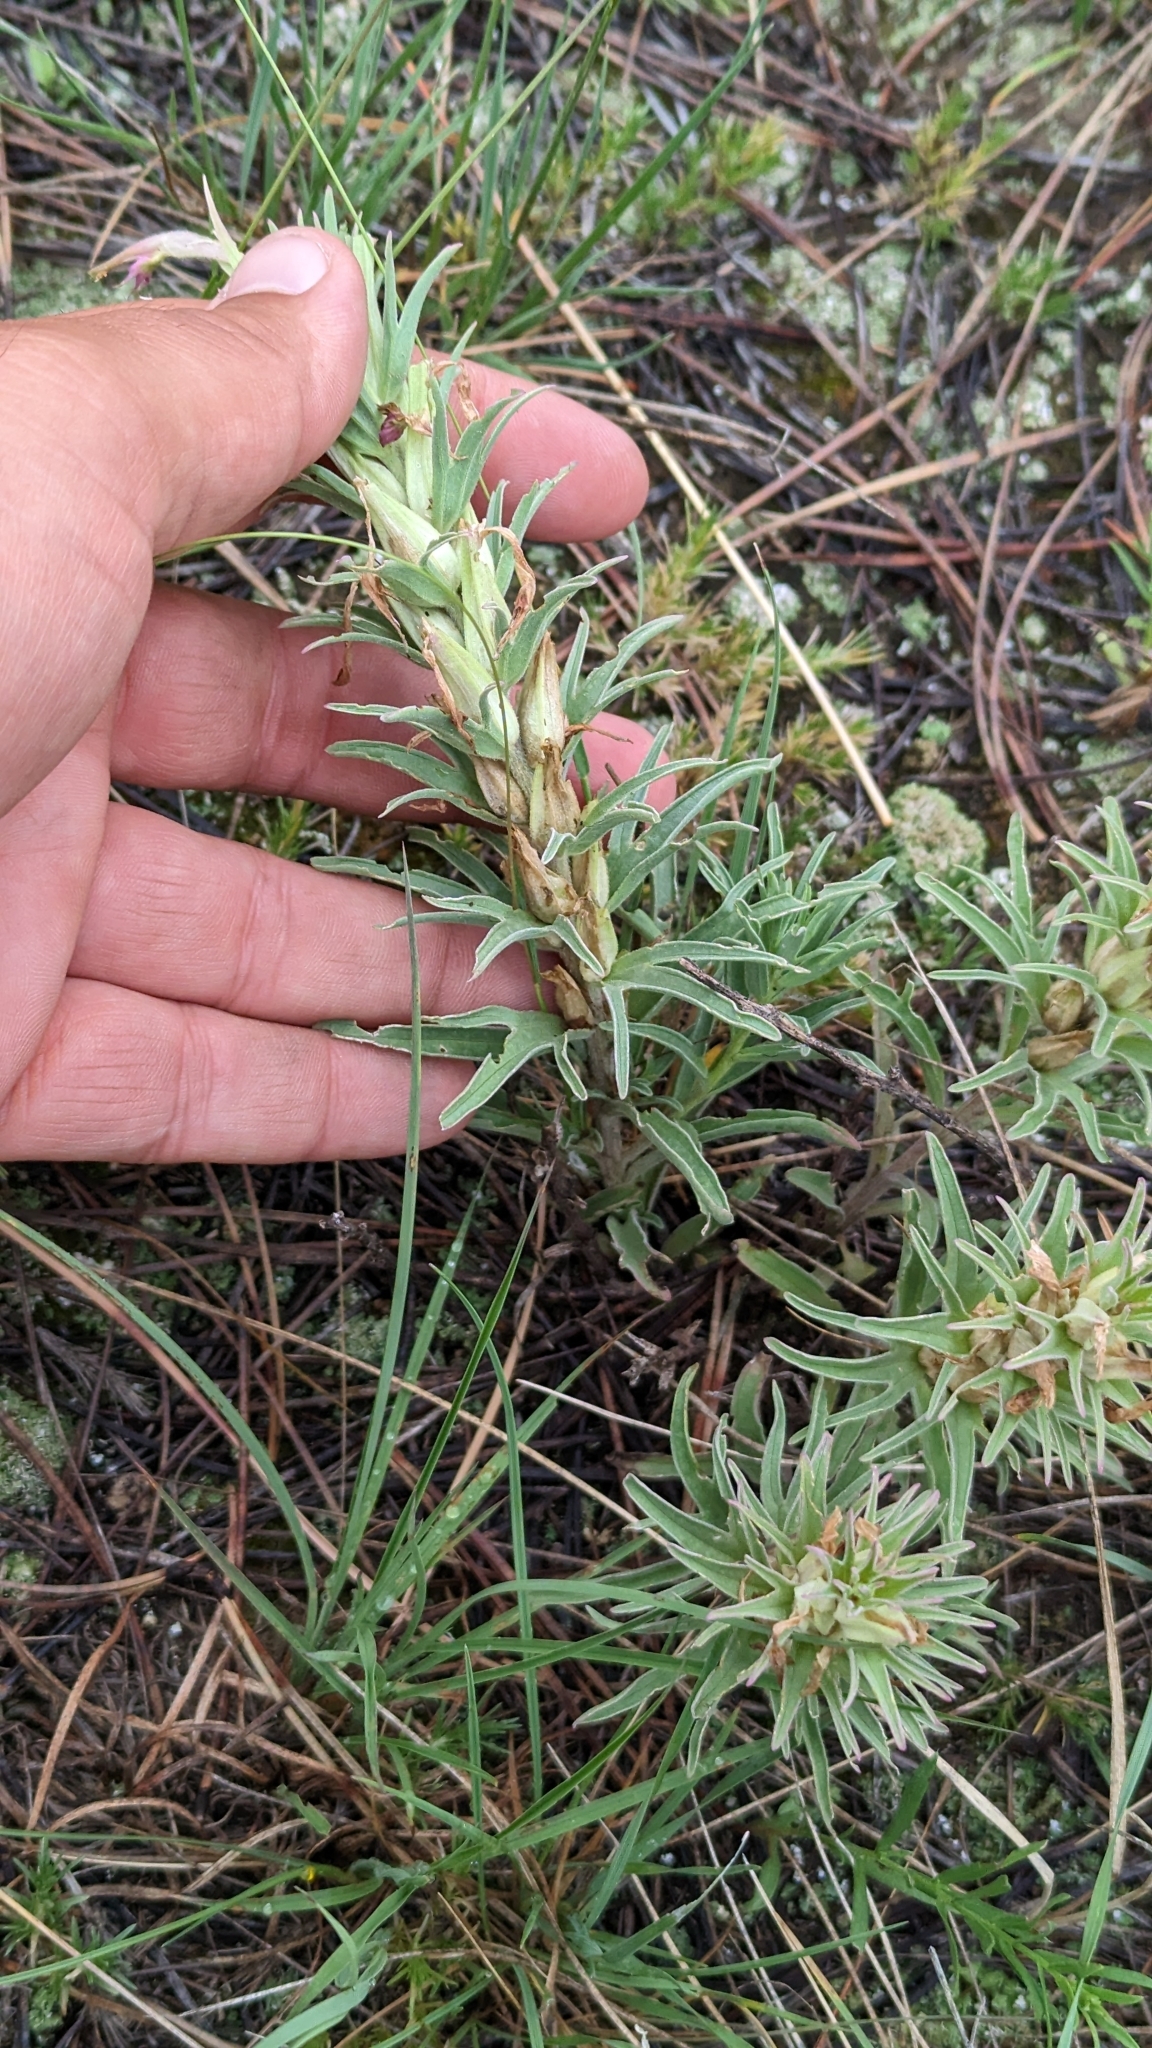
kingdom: Plantae
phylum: Tracheophyta
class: Magnoliopsida
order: Lamiales
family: Orobanchaceae
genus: Castilleja
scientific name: Castilleja sessiliflora
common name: Downy paintbrush
